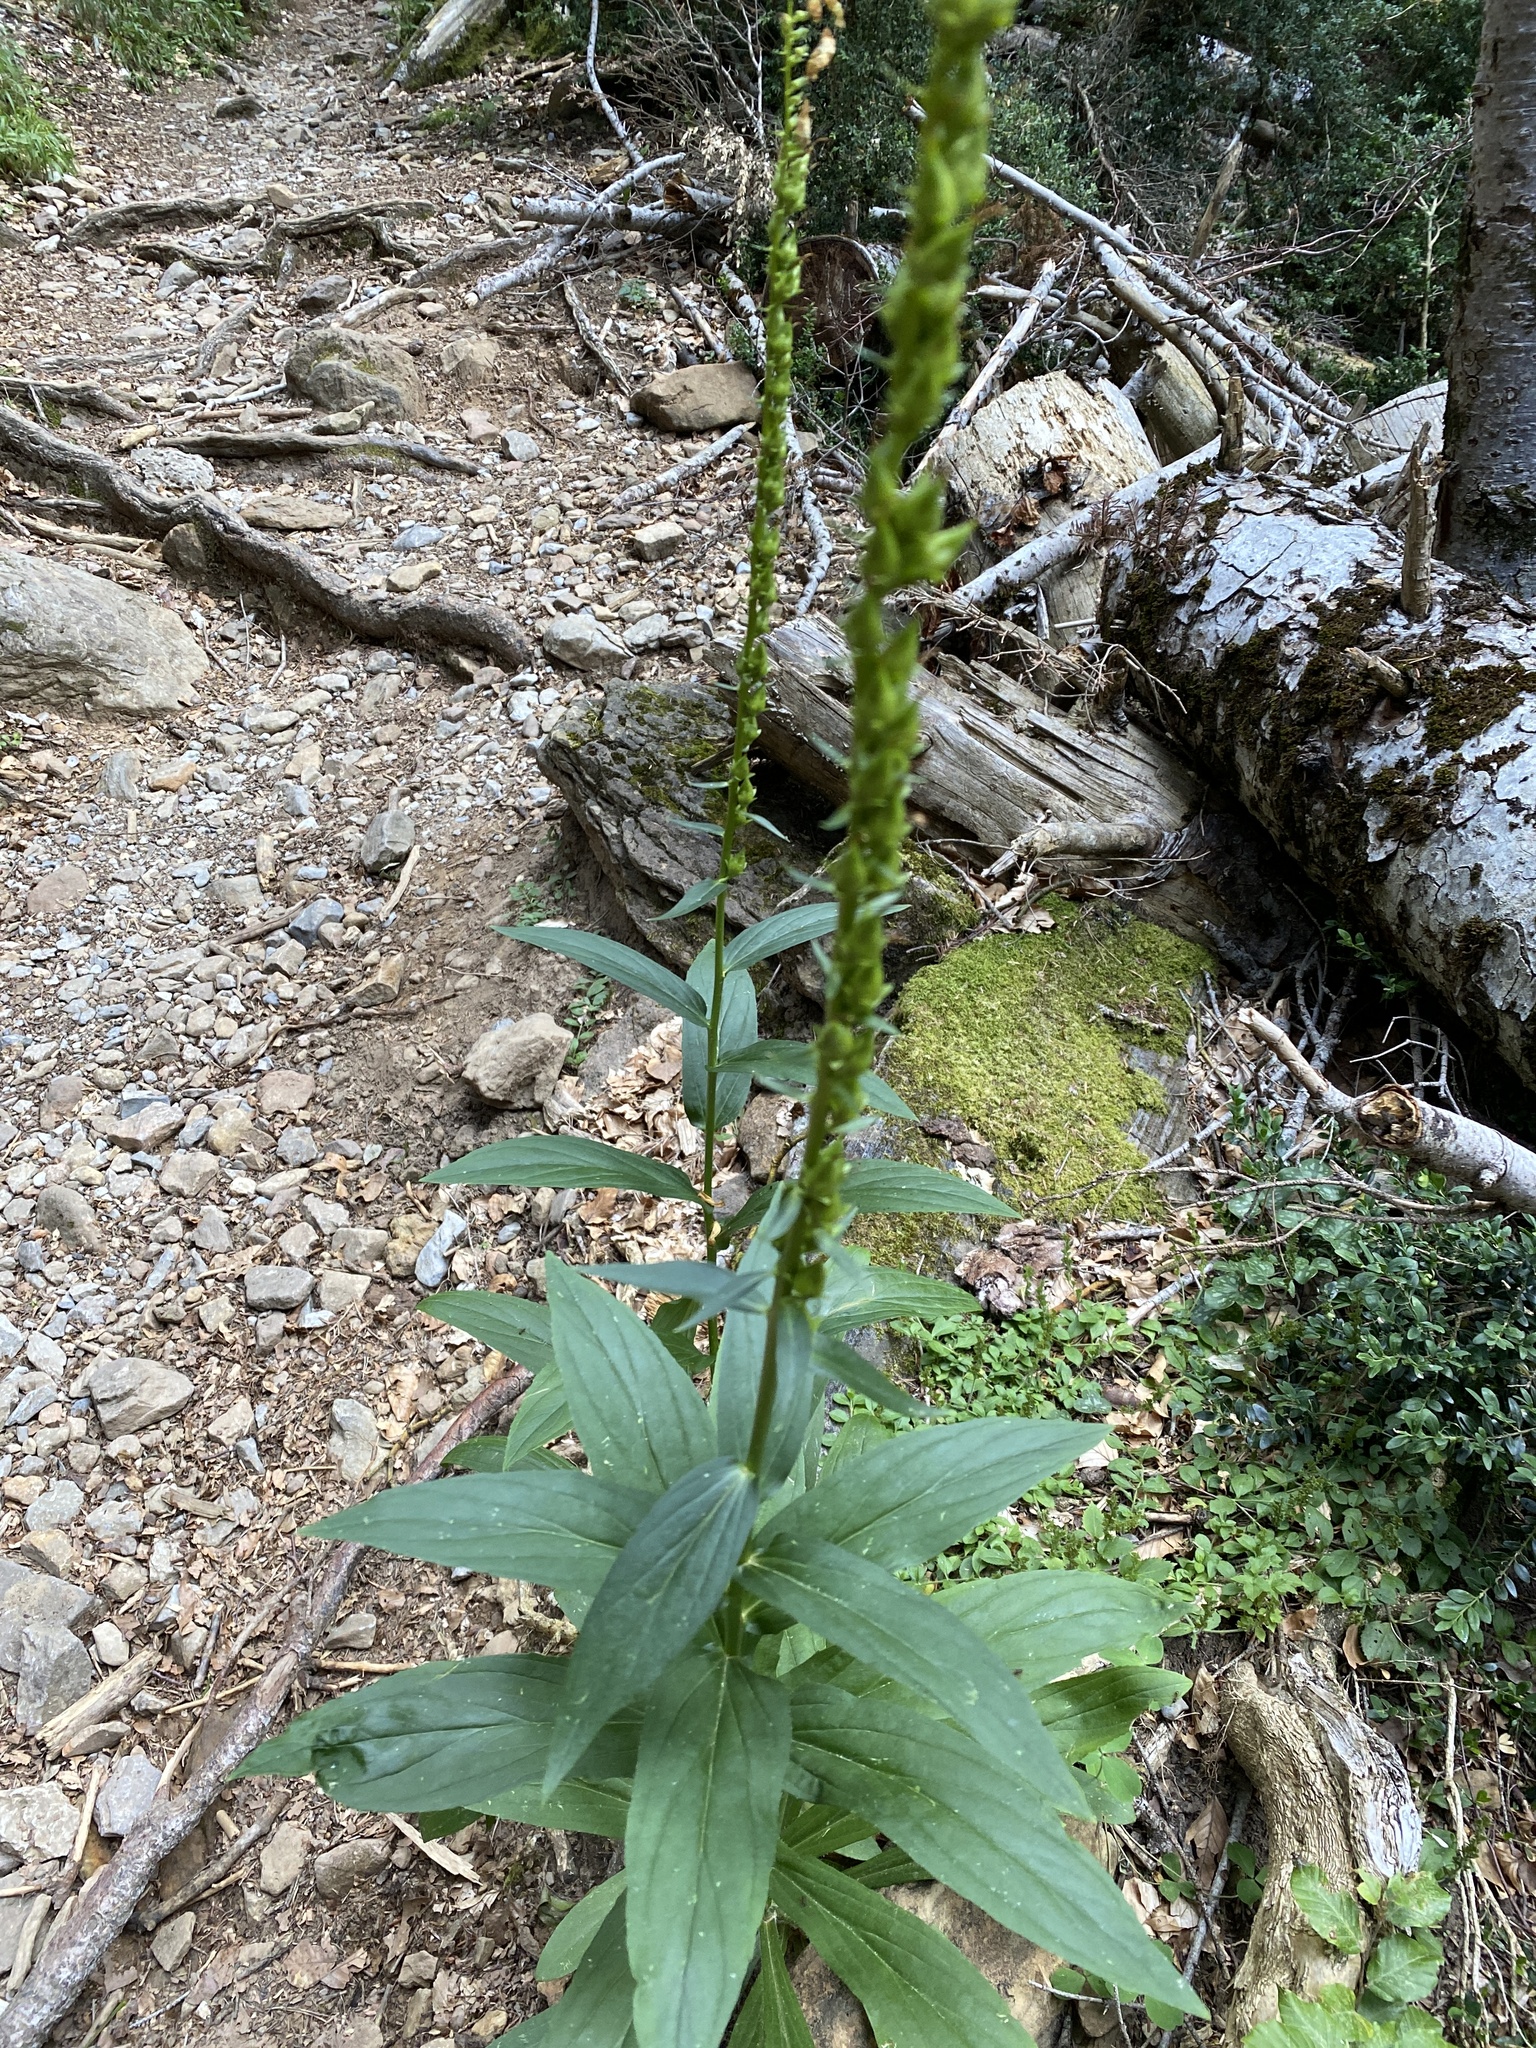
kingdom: Plantae
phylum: Tracheophyta
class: Magnoliopsida
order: Lamiales
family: Plantaginaceae
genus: Digitalis
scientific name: Digitalis lutea
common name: Straw foxglove
